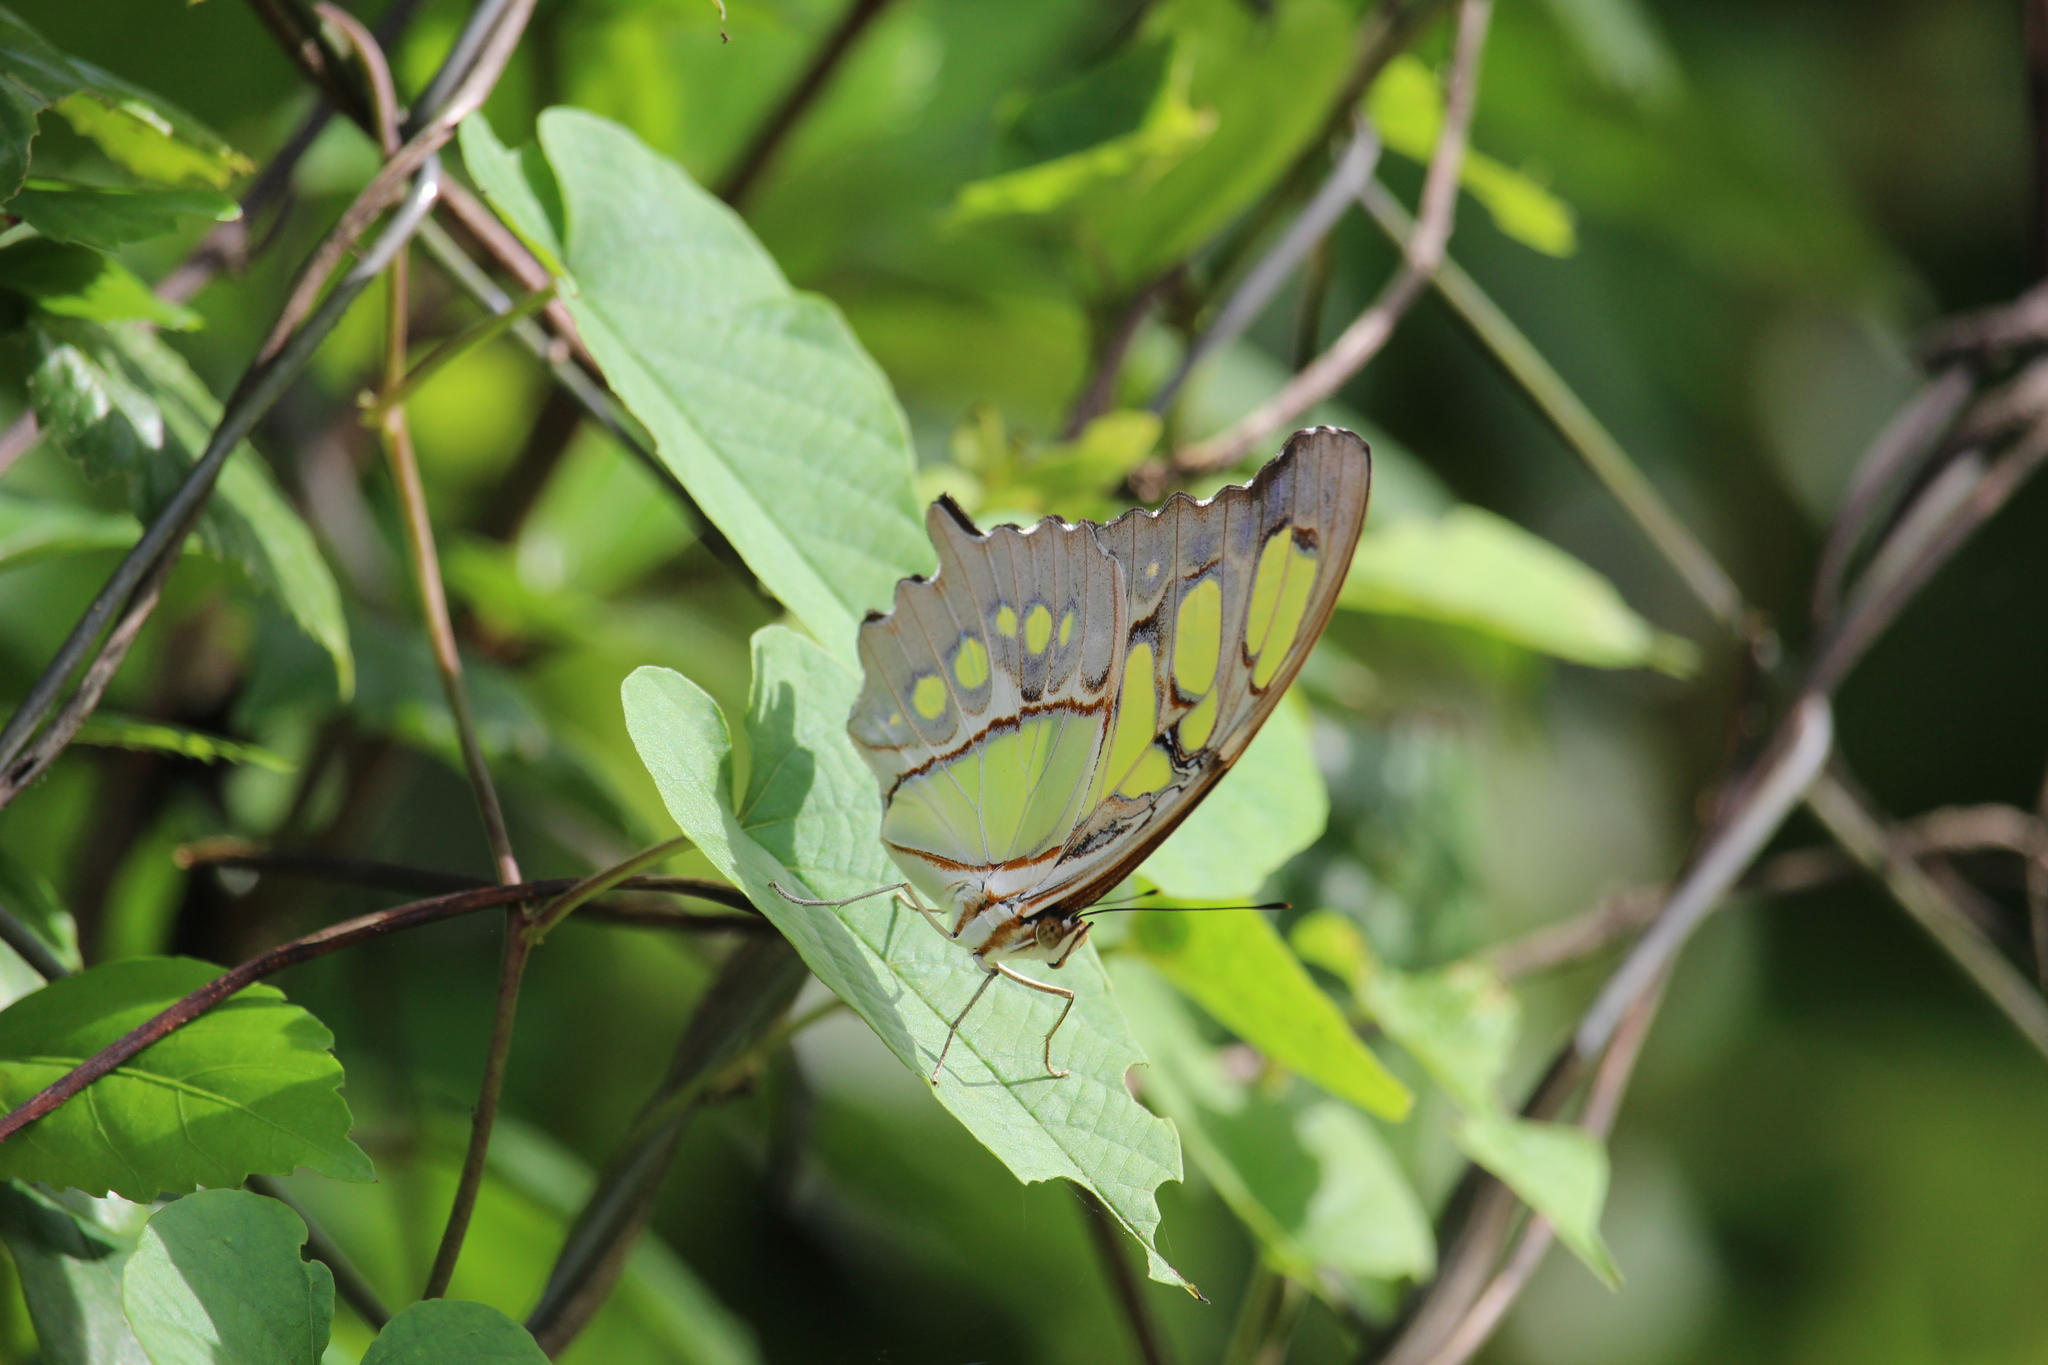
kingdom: Animalia
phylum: Arthropoda
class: Insecta
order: Lepidoptera
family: Nymphalidae
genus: Siproeta
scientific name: Siproeta stelenes
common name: Malachite
